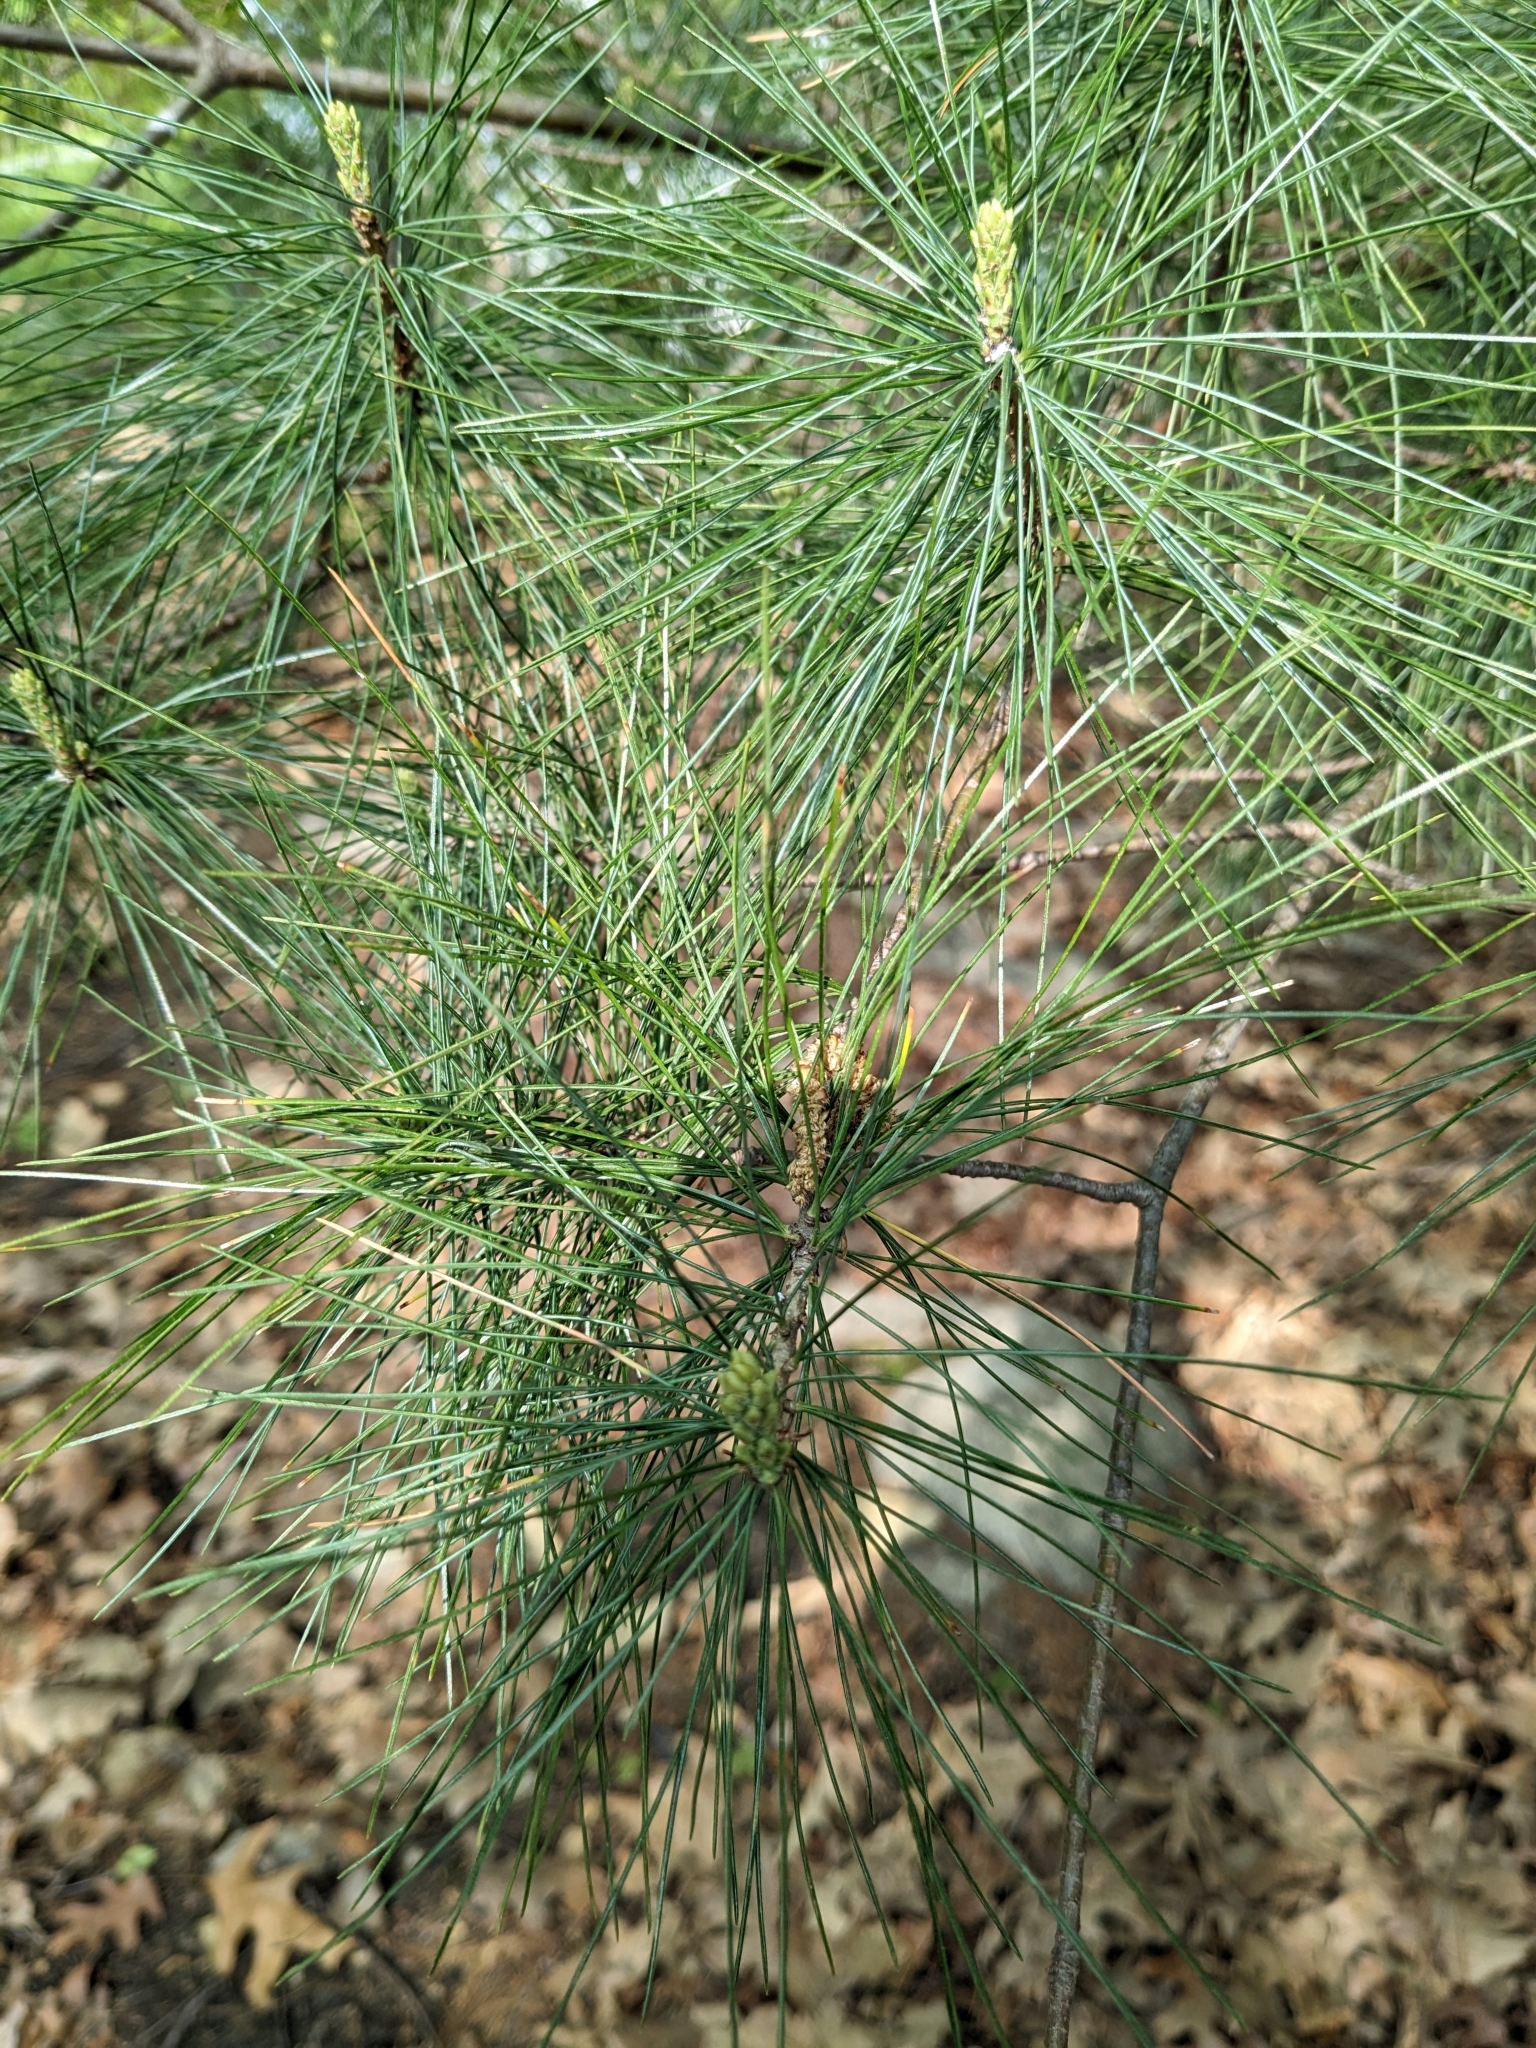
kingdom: Plantae
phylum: Tracheophyta
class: Pinopsida
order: Pinales
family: Pinaceae
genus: Pinus
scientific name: Pinus strobus
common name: Weymouth pine
